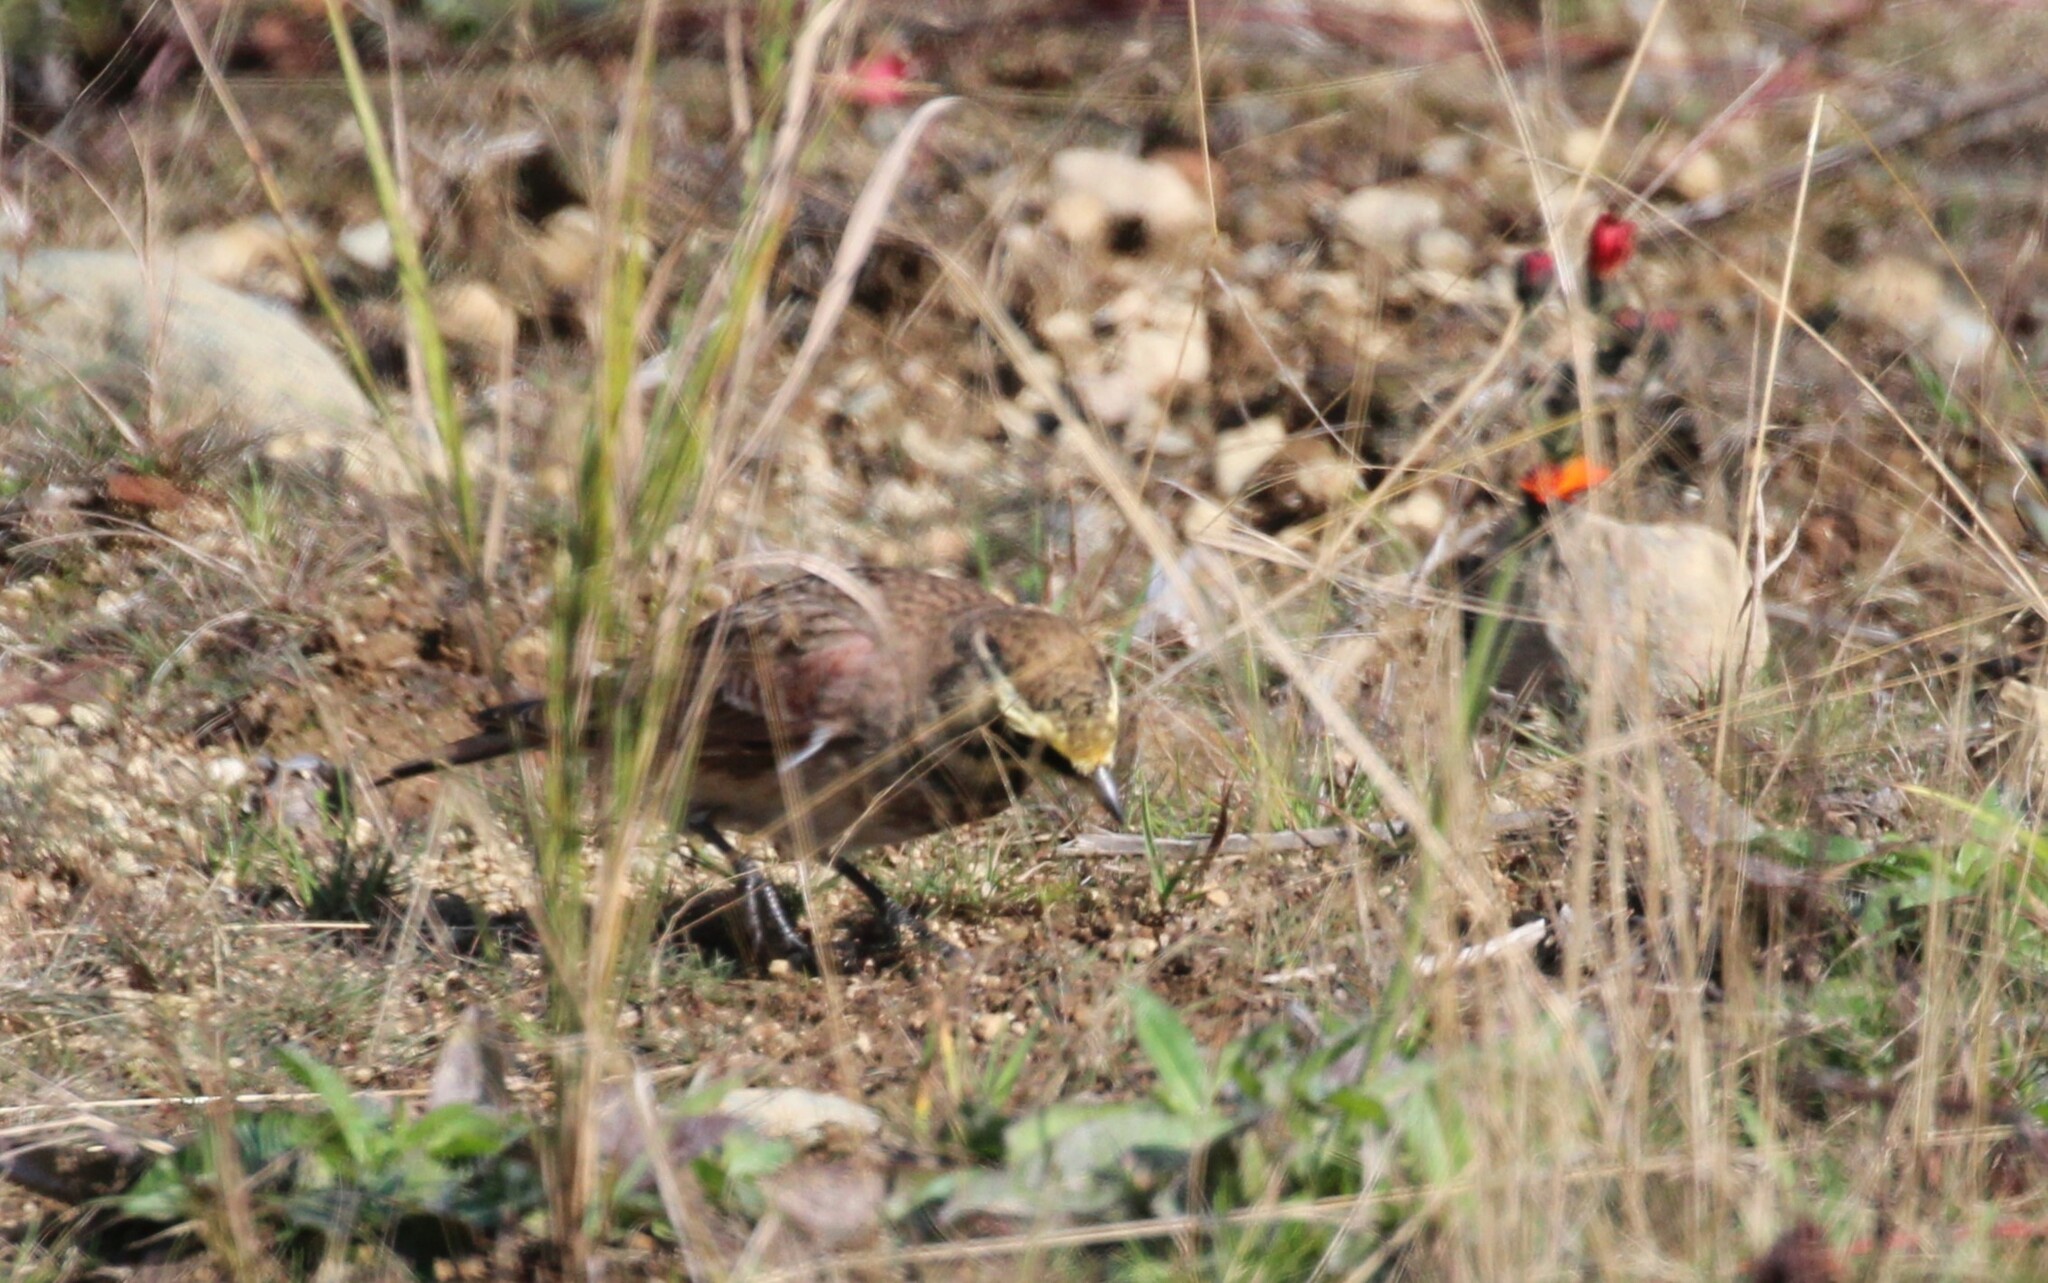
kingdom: Animalia
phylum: Chordata
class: Aves
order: Passeriformes
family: Alaudidae
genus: Eremophila
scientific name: Eremophila alpestris
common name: Horned lark
